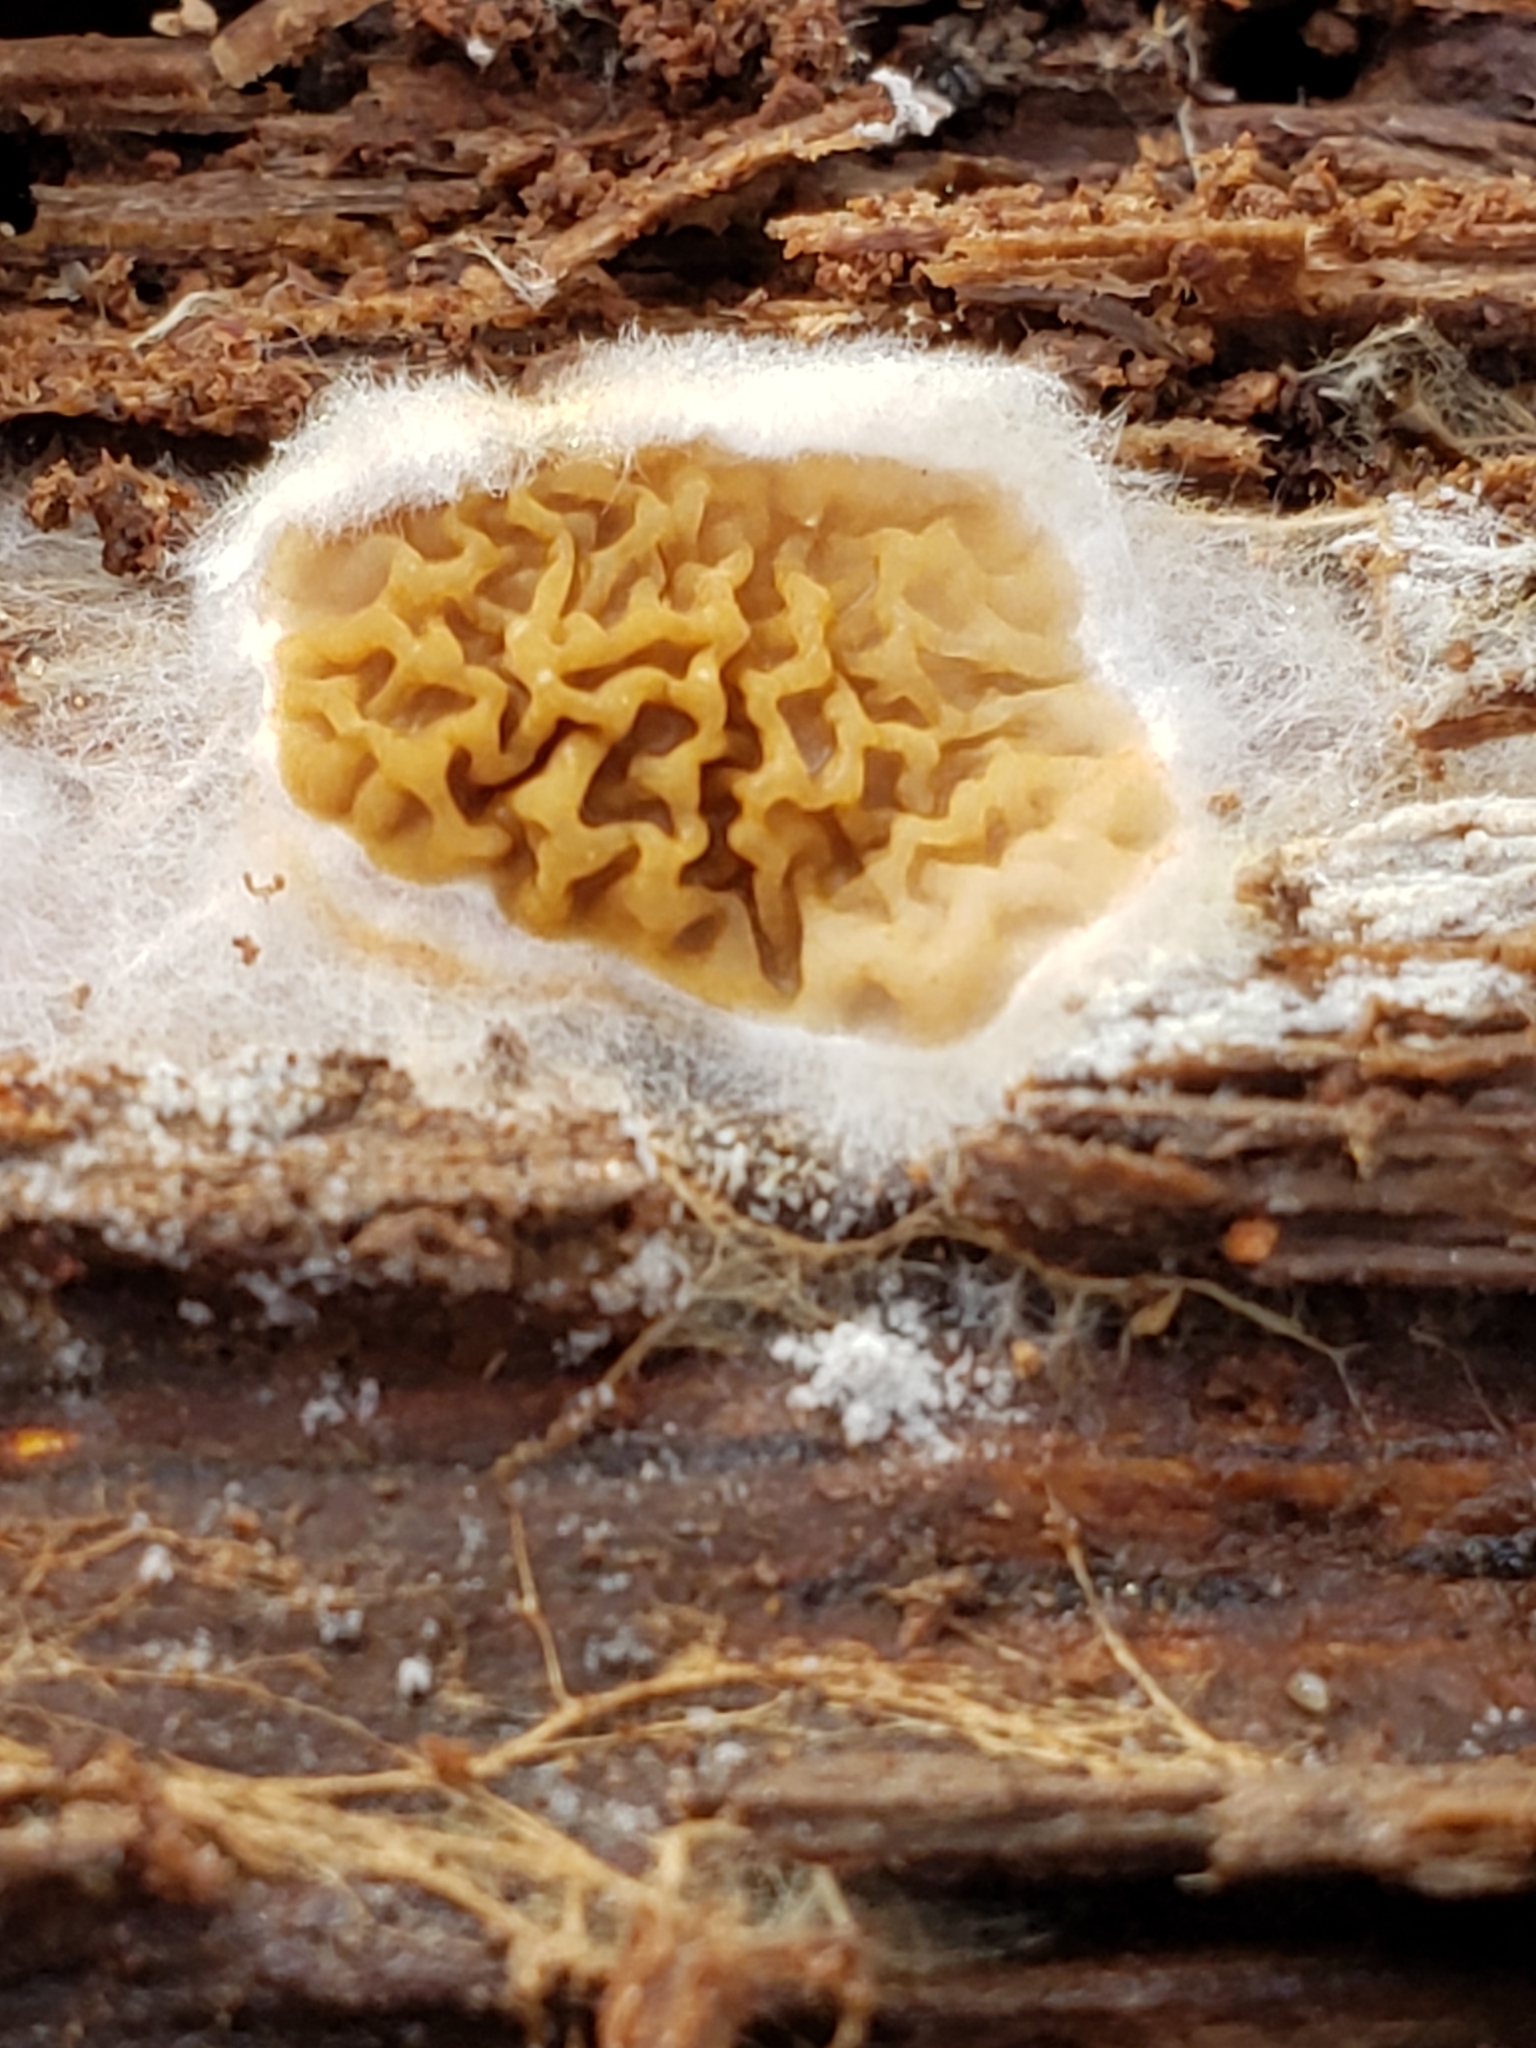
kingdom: Fungi
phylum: Basidiomycota
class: Agaricomycetes
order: Boletales
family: Serpulaceae
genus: Serpula
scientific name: Serpula himantioides
